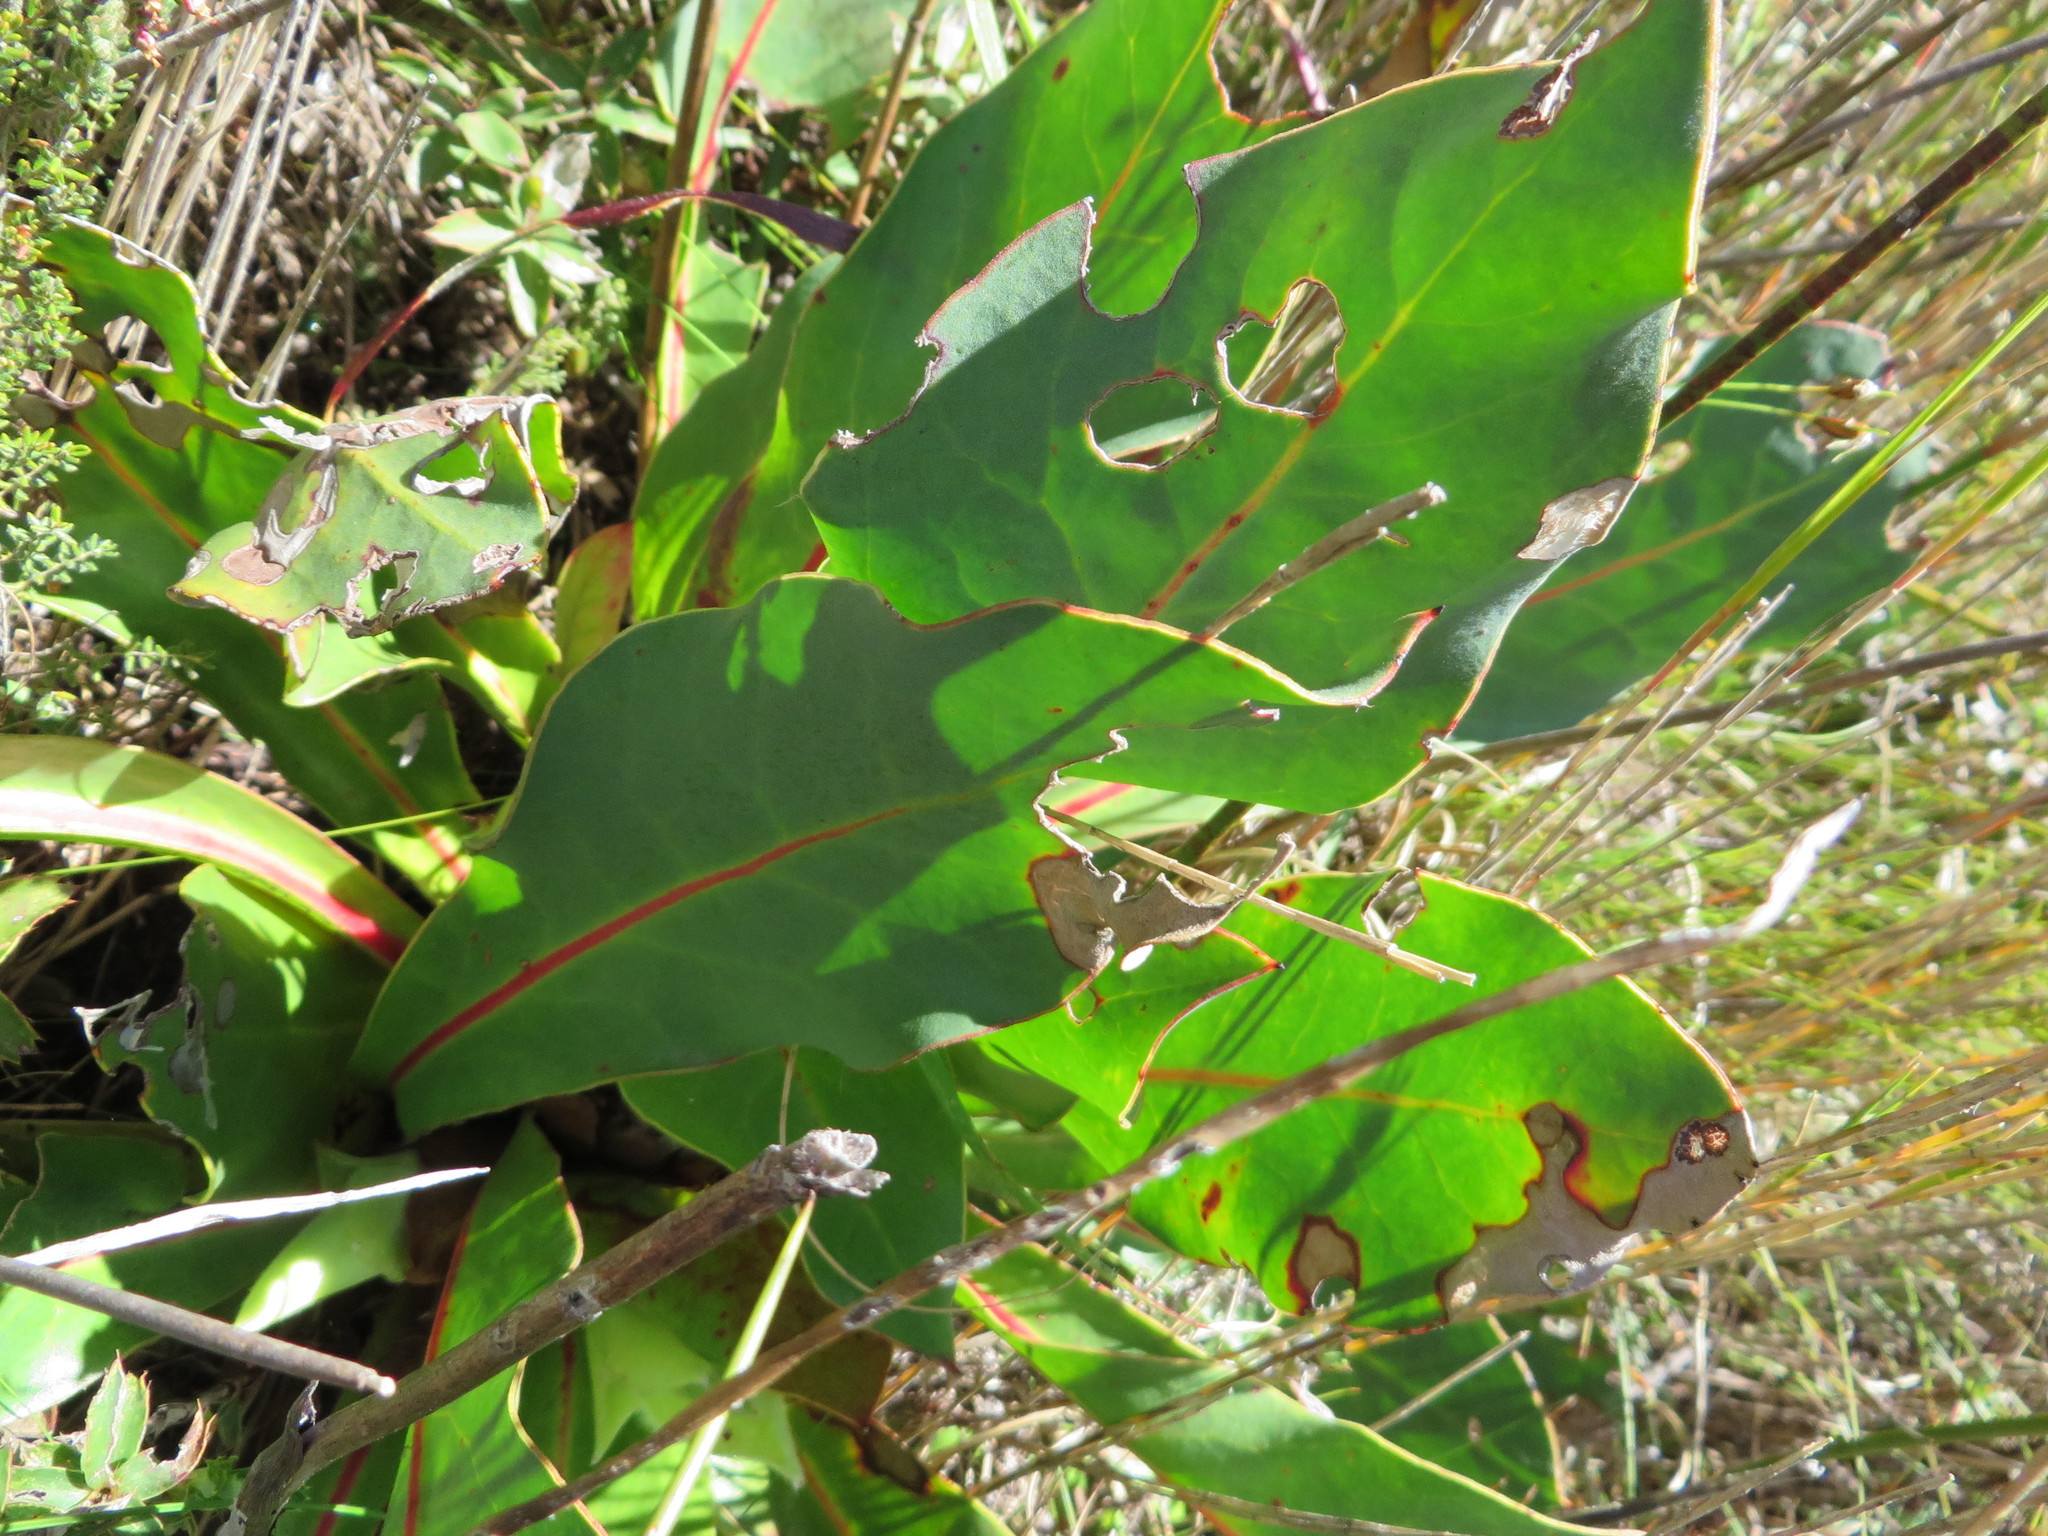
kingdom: Plantae
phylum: Tracheophyta
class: Magnoliopsida
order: Proteales
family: Proteaceae
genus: Protea
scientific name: Protea caespitosa
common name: Bishop sugarbush
